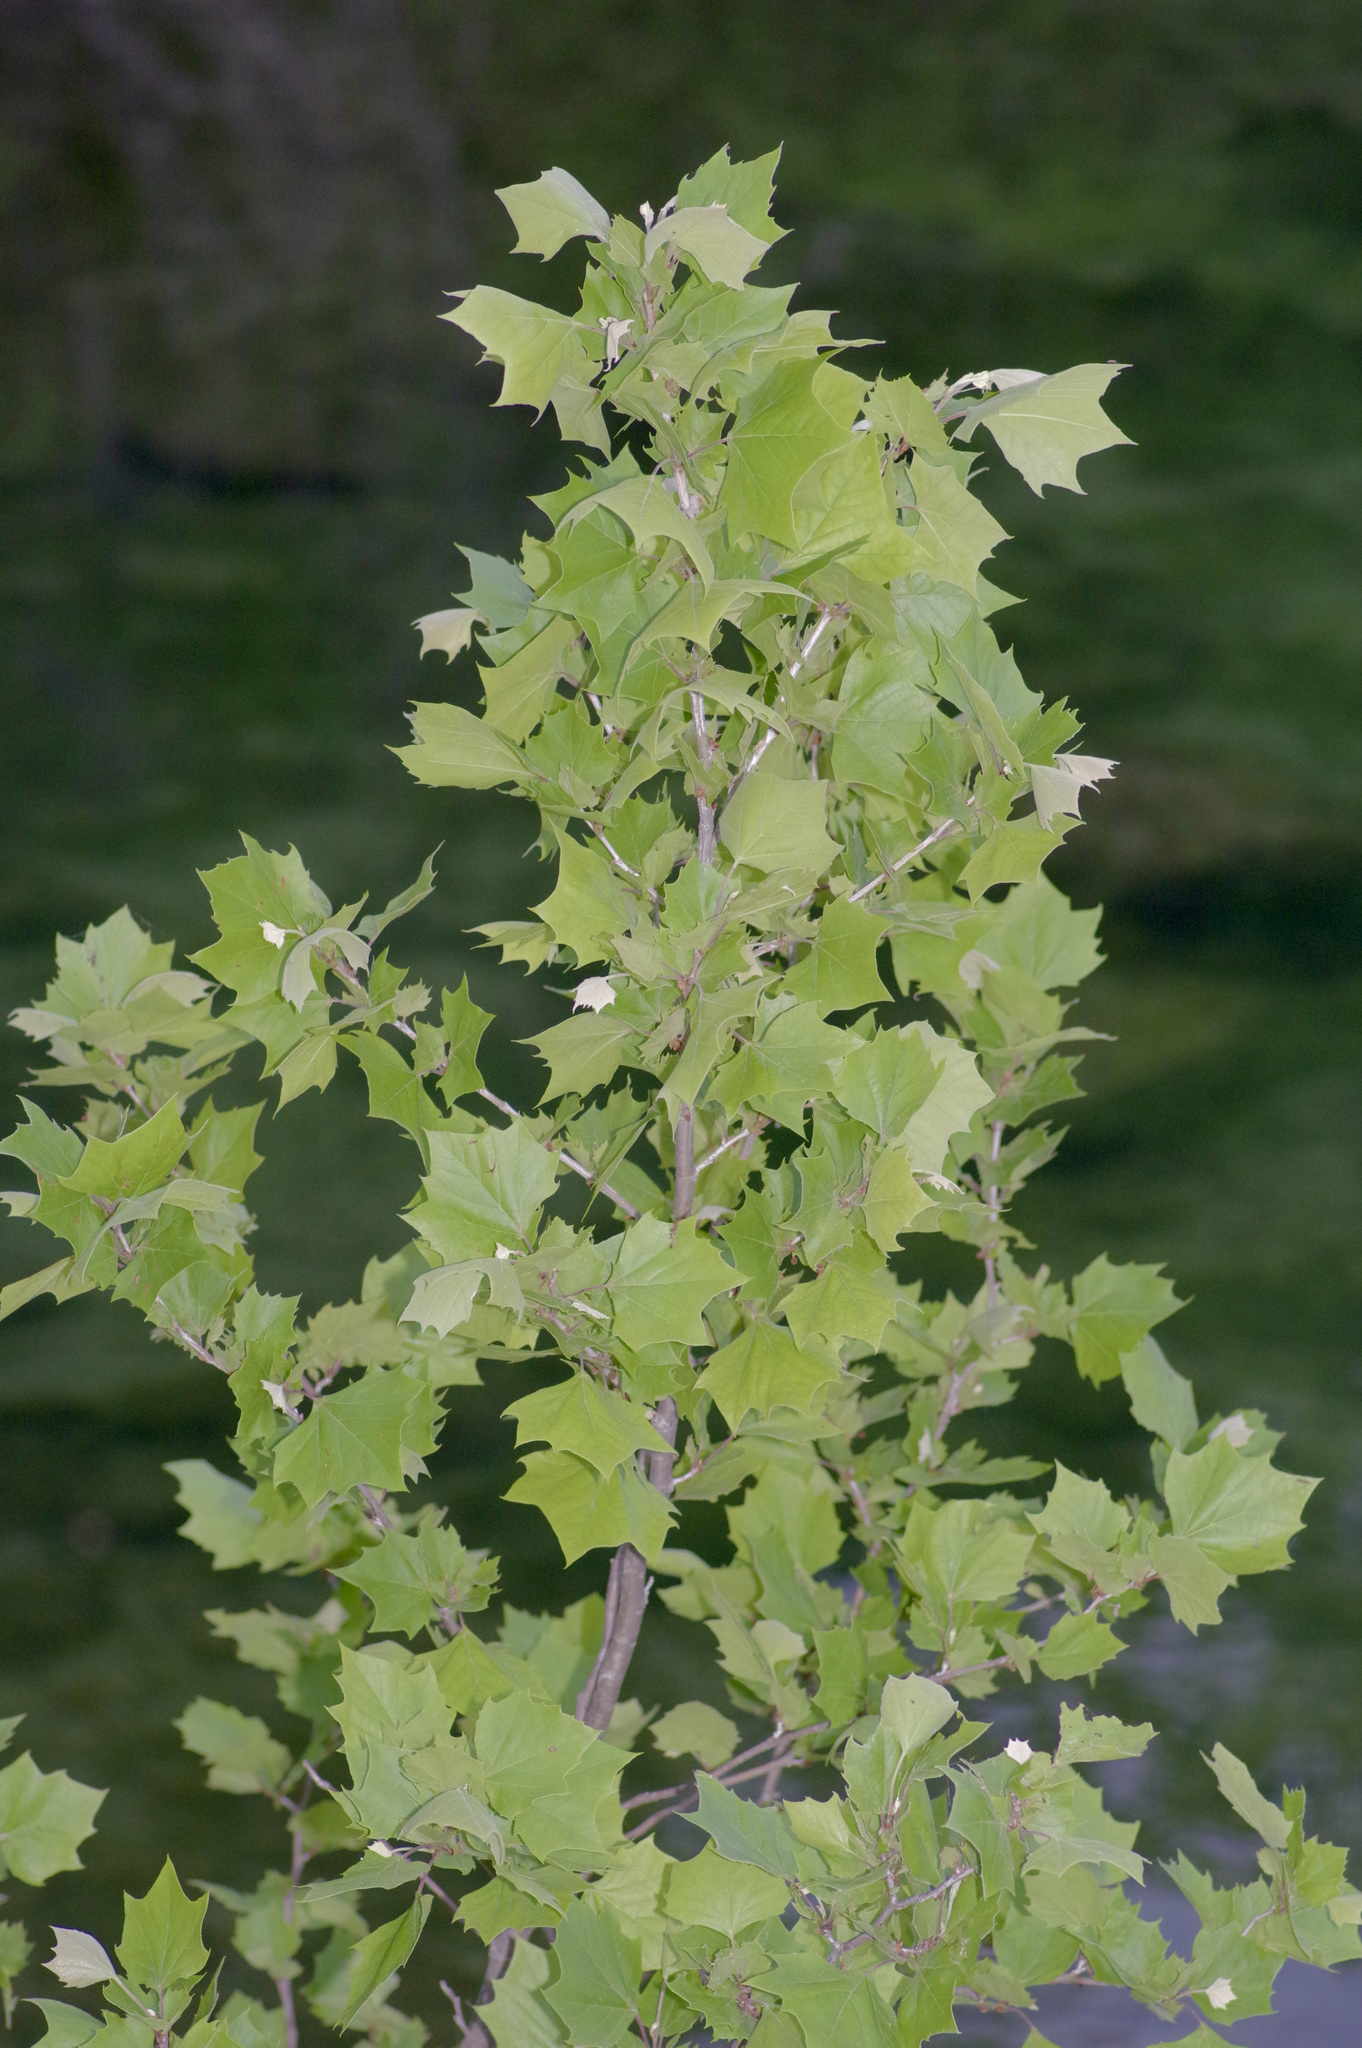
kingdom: Plantae
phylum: Tracheophyta
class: Magnoliopsida
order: Proteales
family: Platanaceae
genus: Platanus
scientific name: Platanus occidentalis
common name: American sycamore
